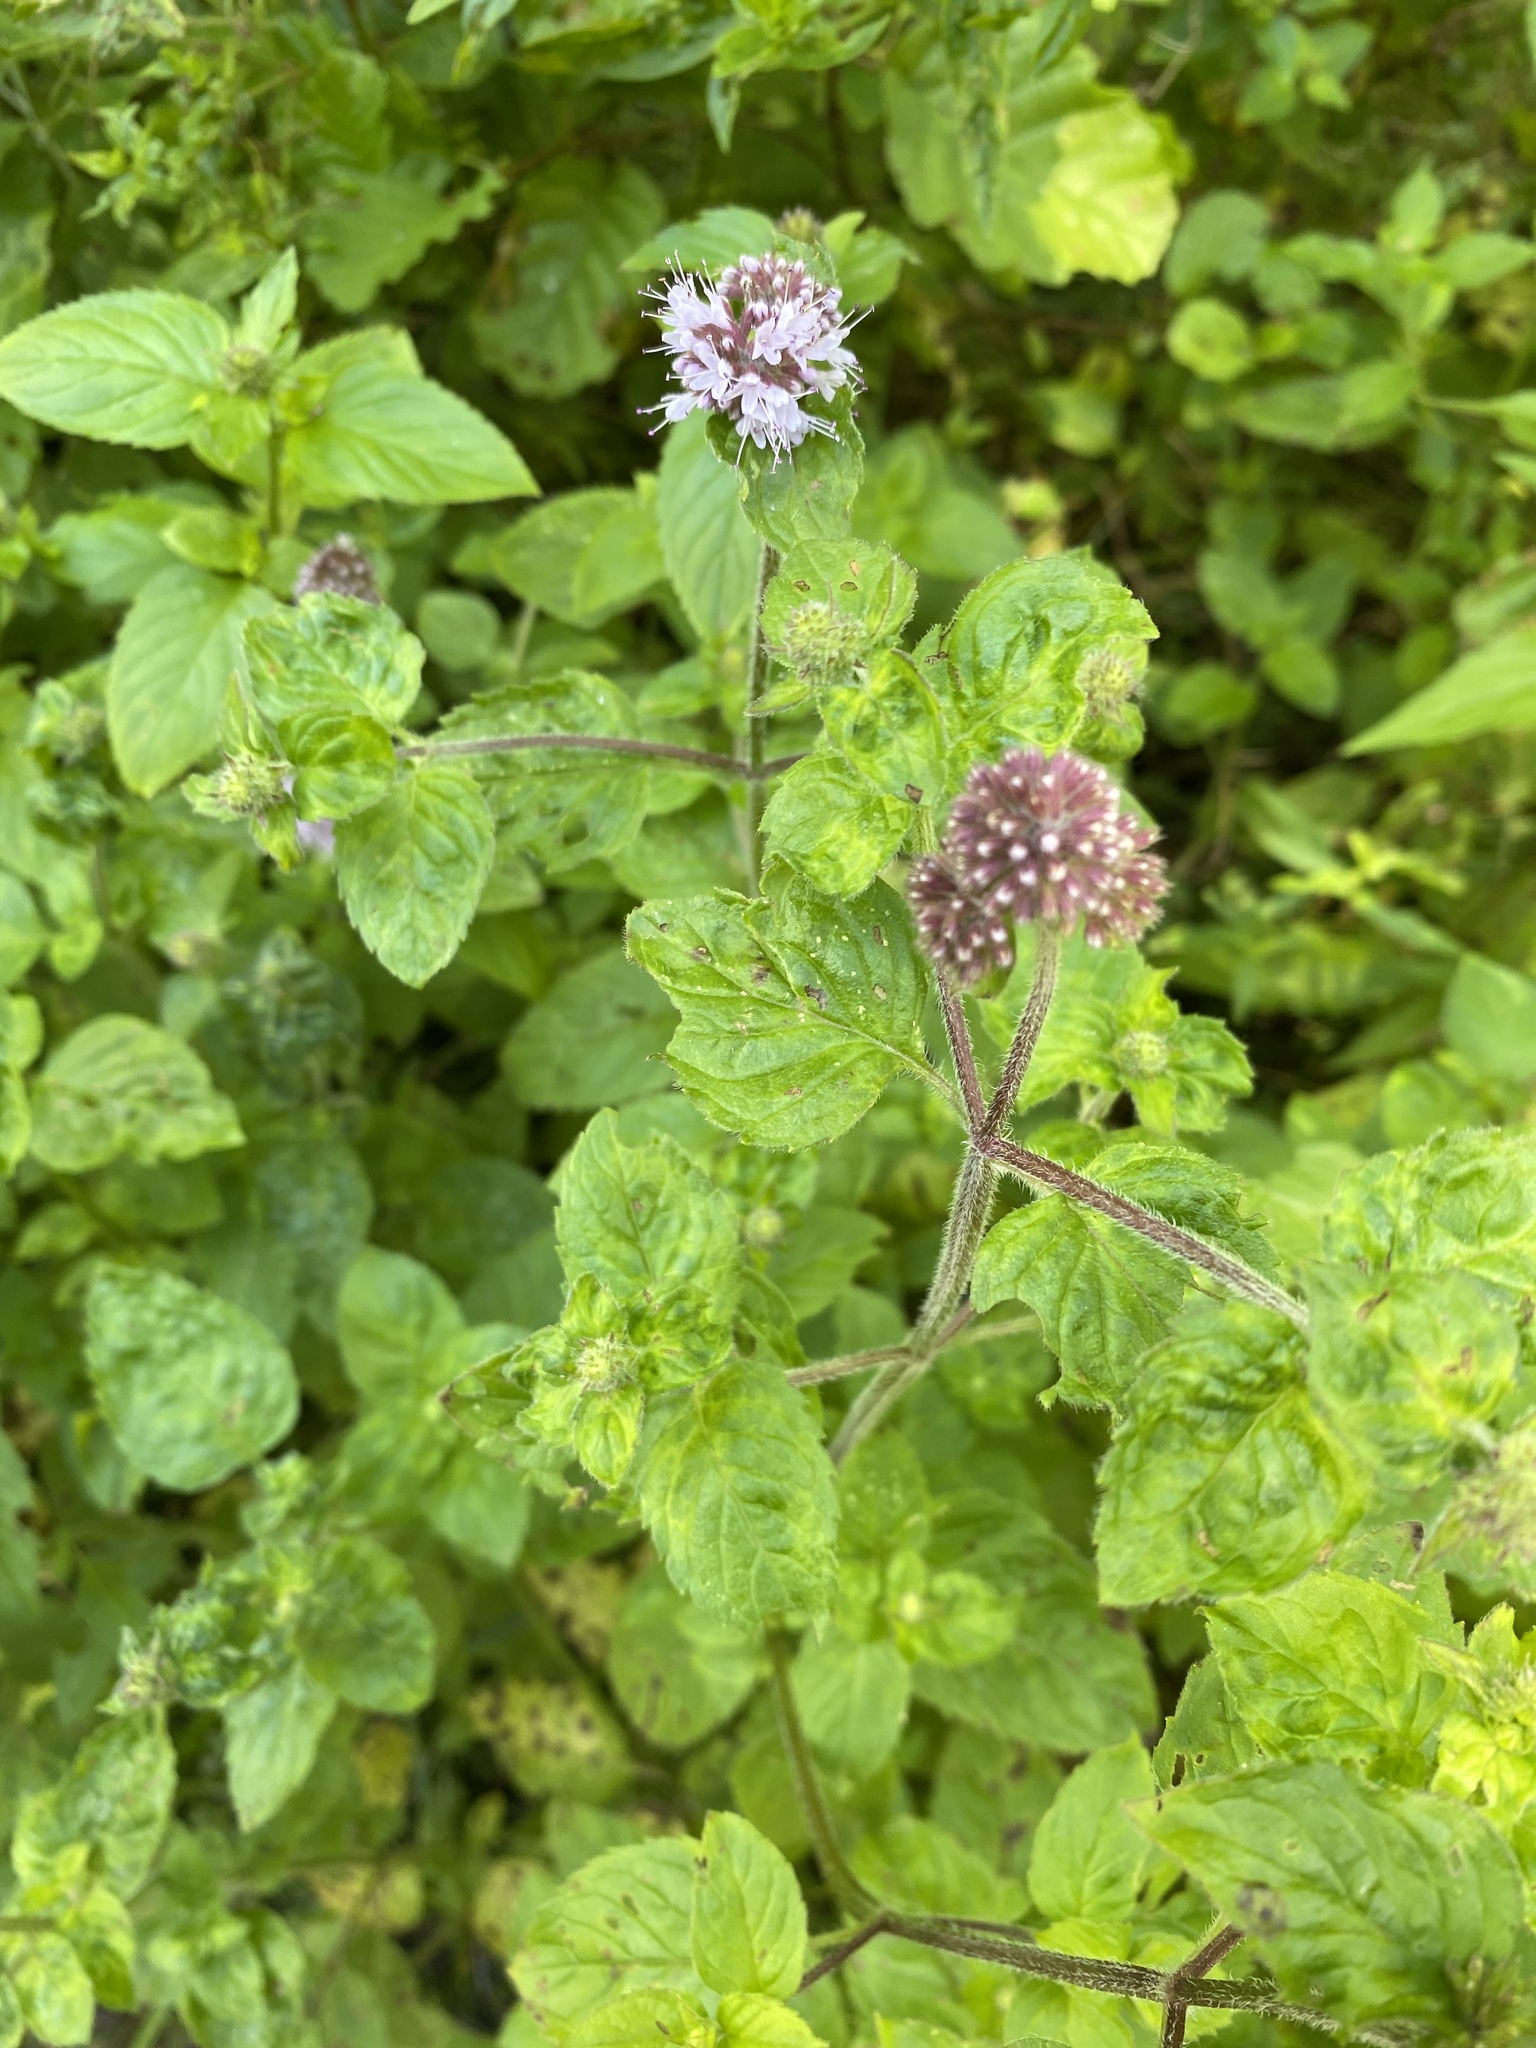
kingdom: Plantae
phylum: Tracheophyta
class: Magnoliopsida
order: Lamiales
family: Lamiaceae
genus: Mentha
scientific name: Mentha aquatica
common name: Water mint
